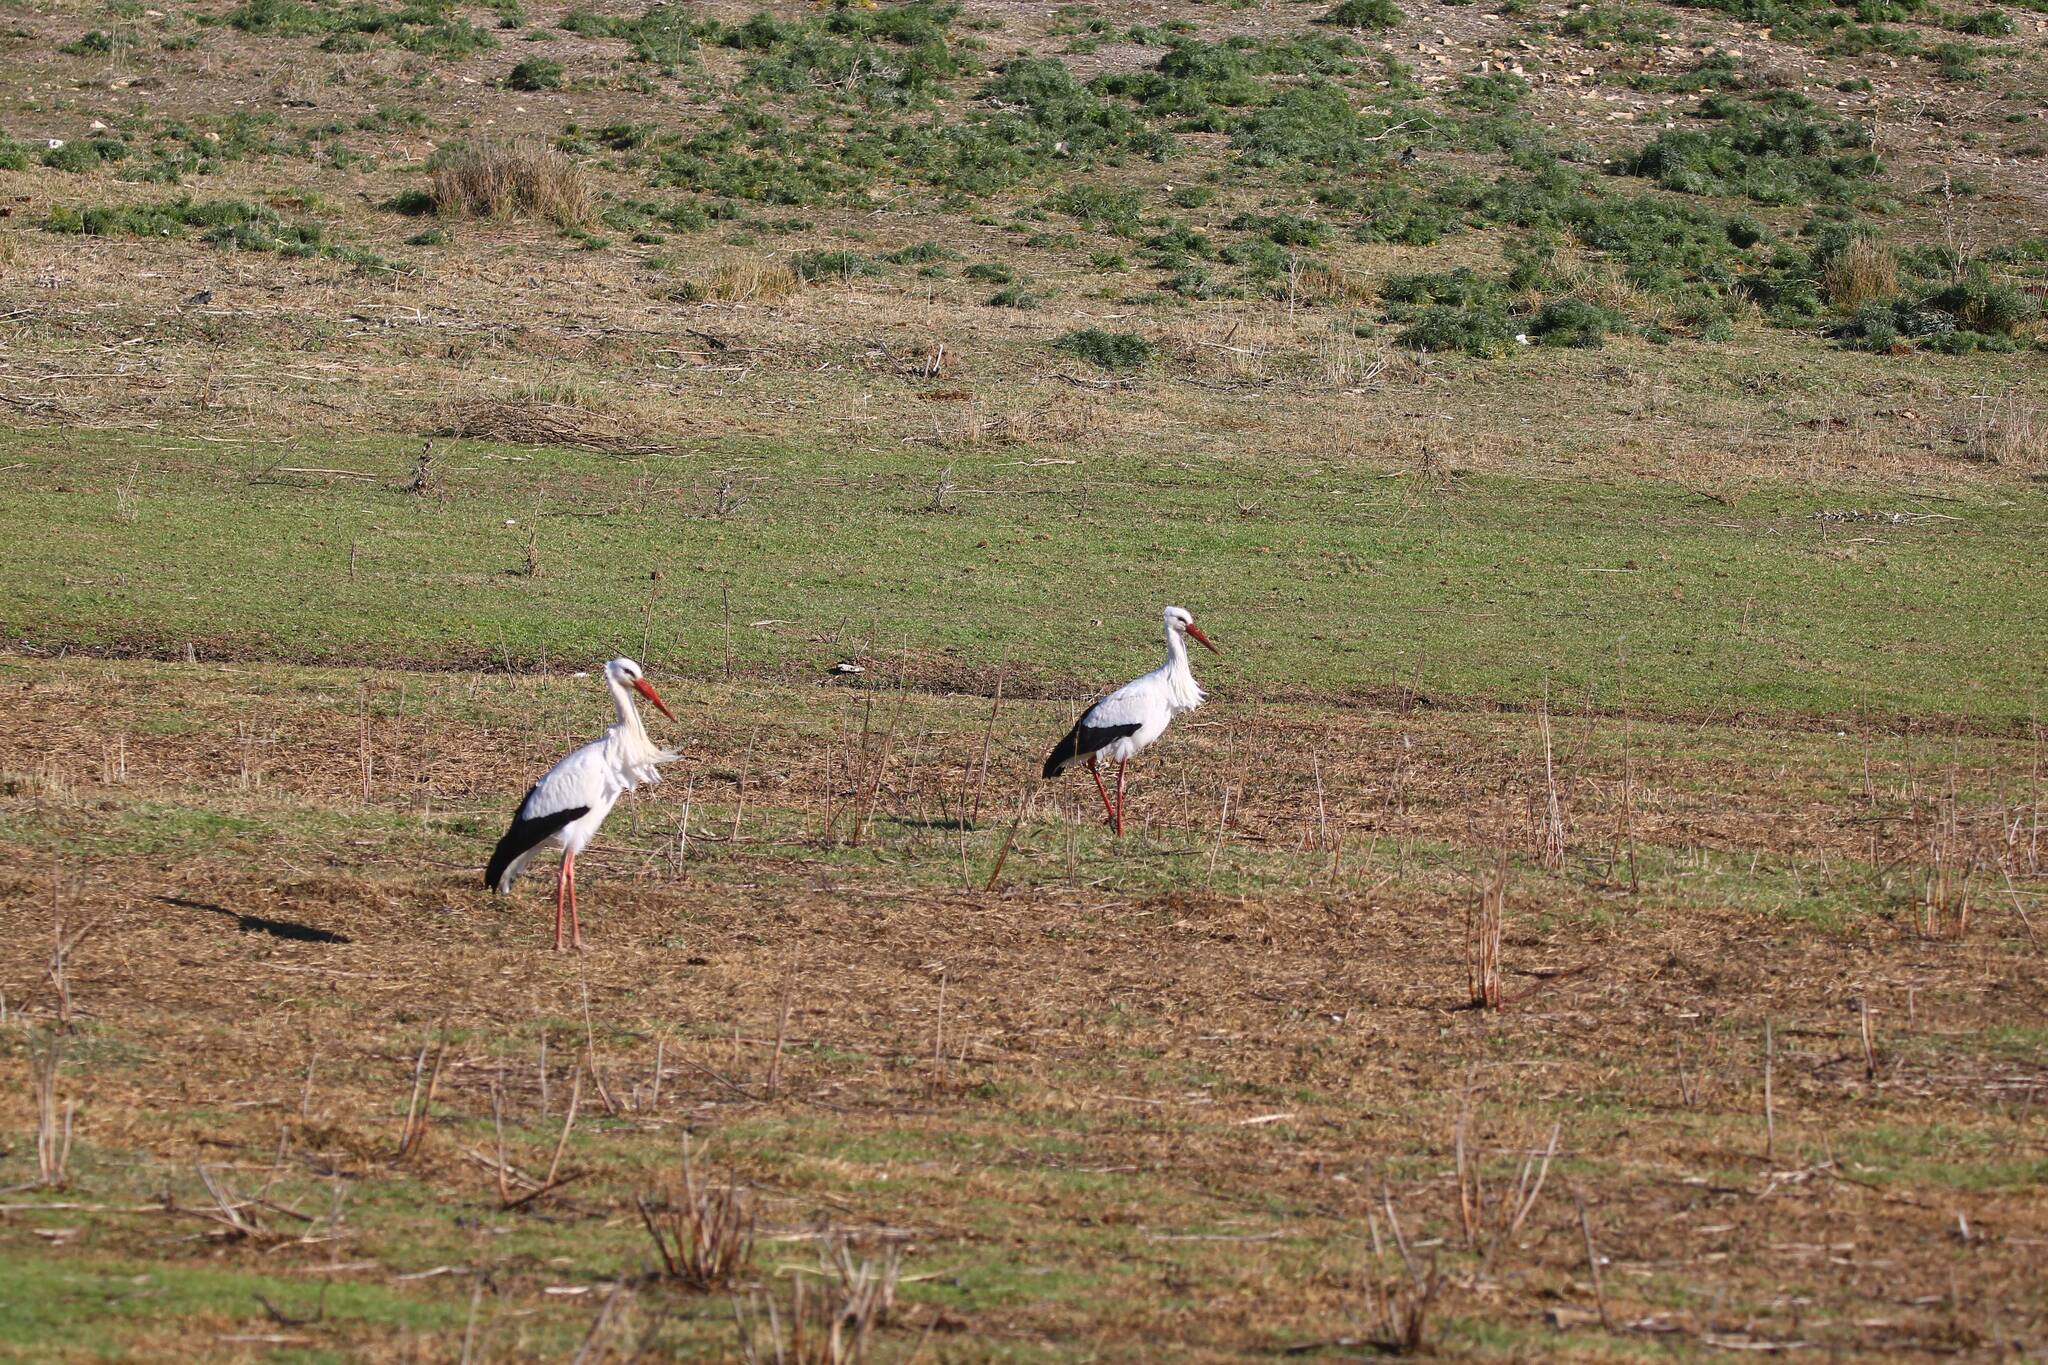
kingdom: Animalia
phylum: Chordata
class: Aves
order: Ciconiiformes
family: Ciconiidae
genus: Ciconia
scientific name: Ciconia ciconia
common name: White stork
